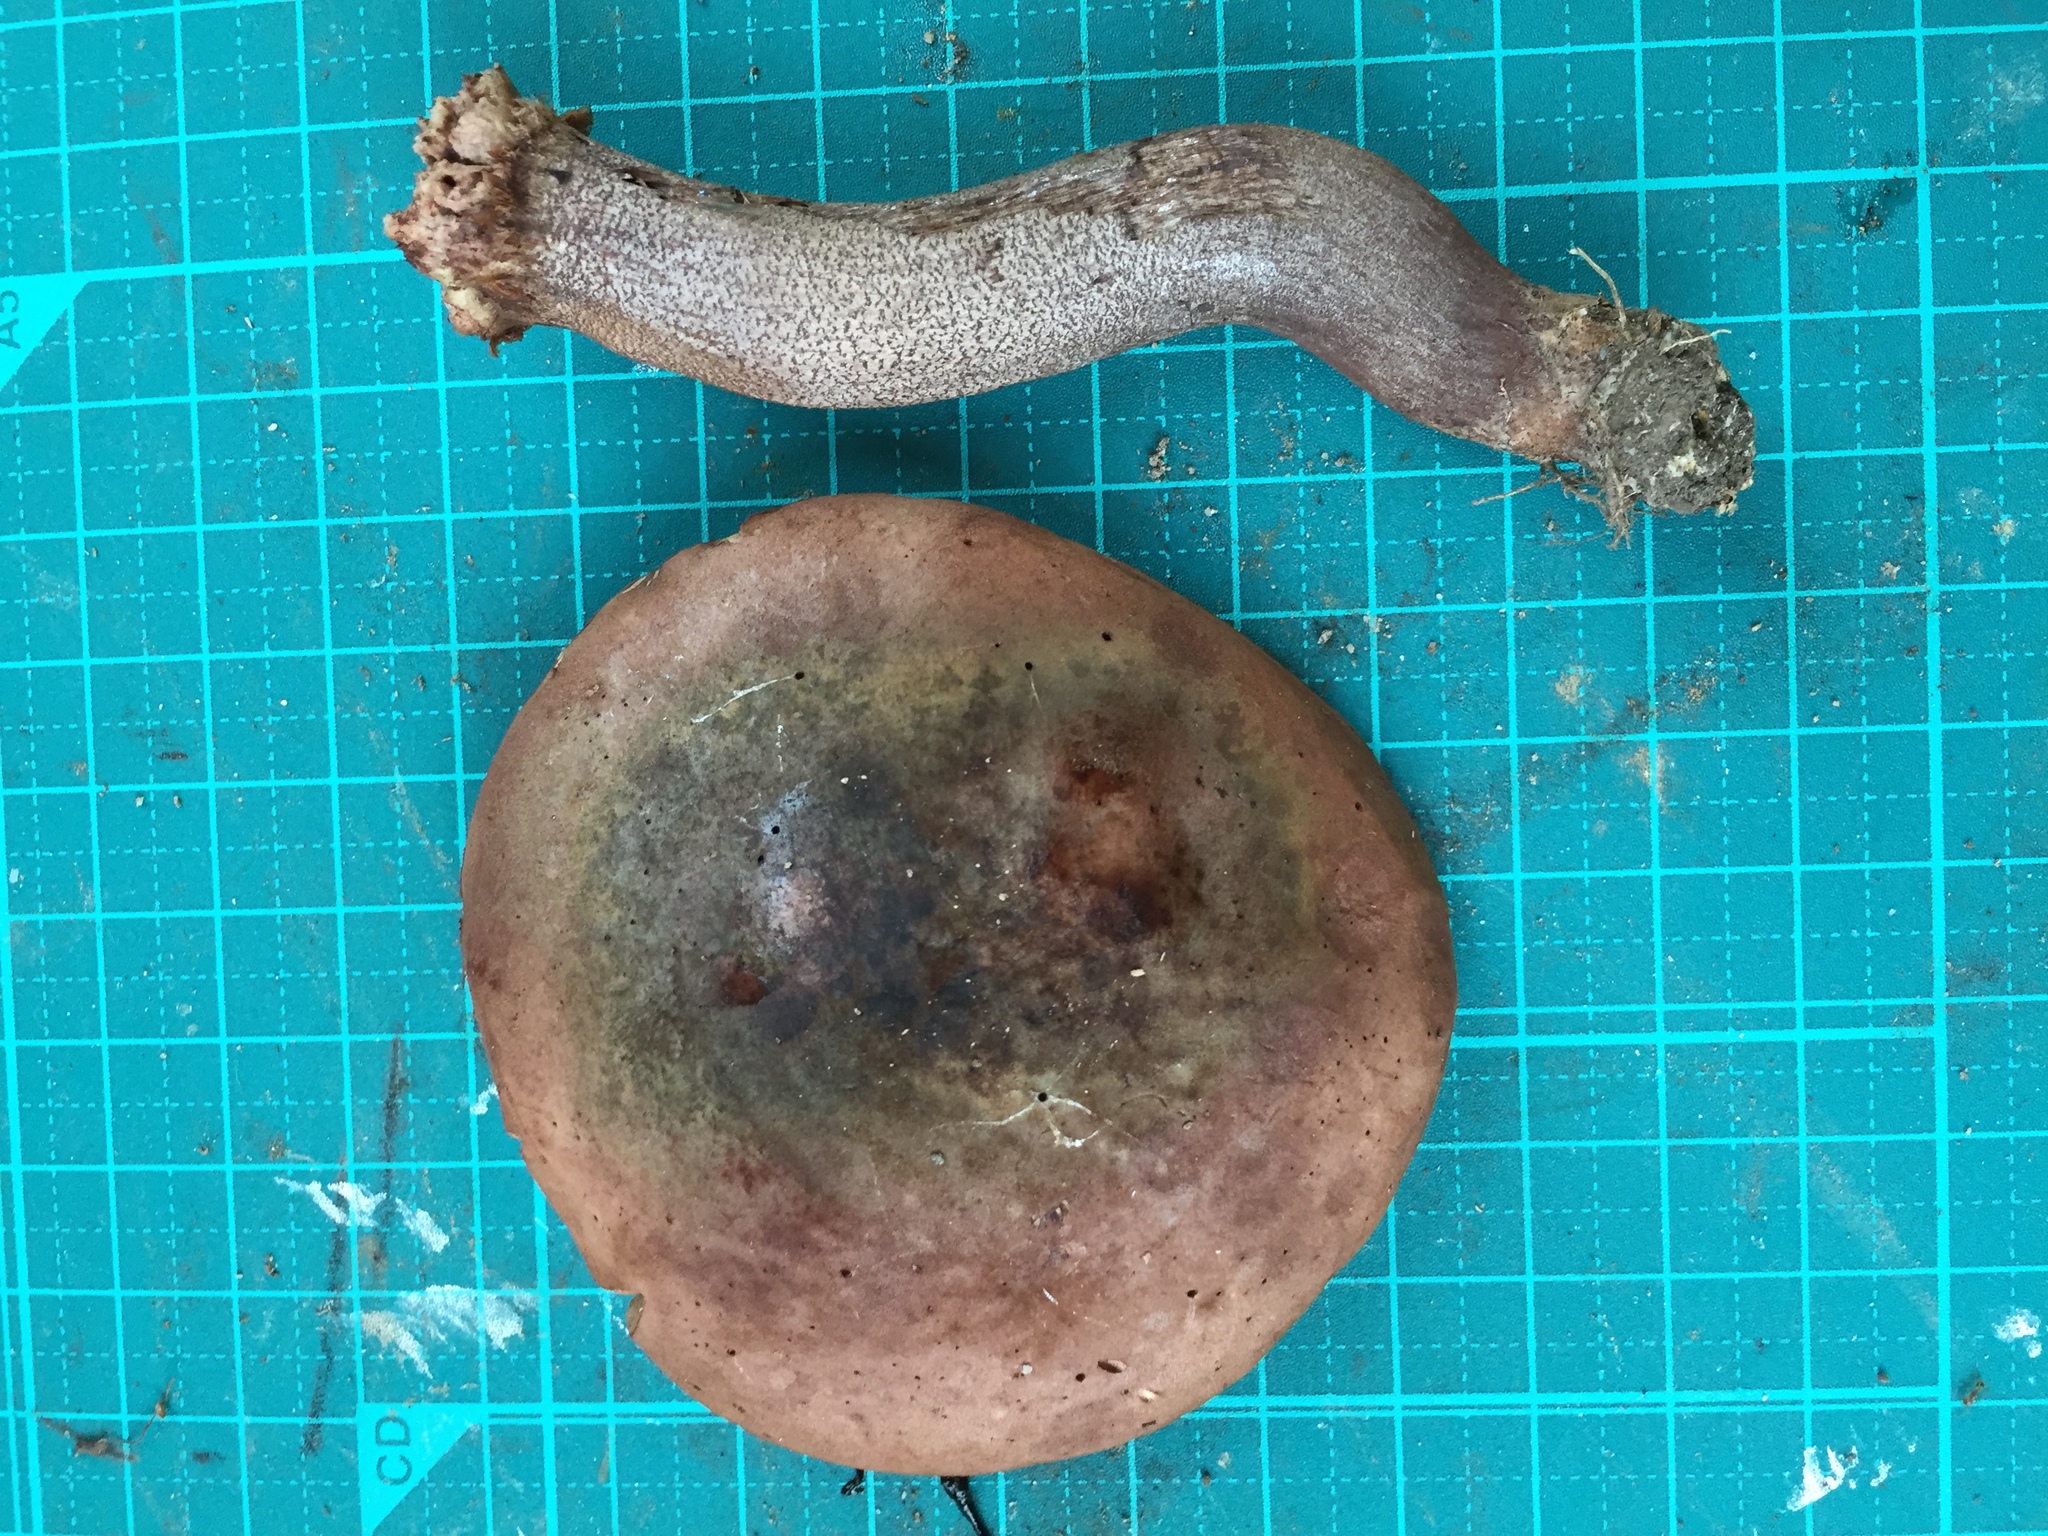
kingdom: Fungi
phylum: Basidiomycota
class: Agaricomycetes
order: Boletales
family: Boletaceae
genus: Sutorius
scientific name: Sutorius eximius
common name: Lilac-brown bolete
